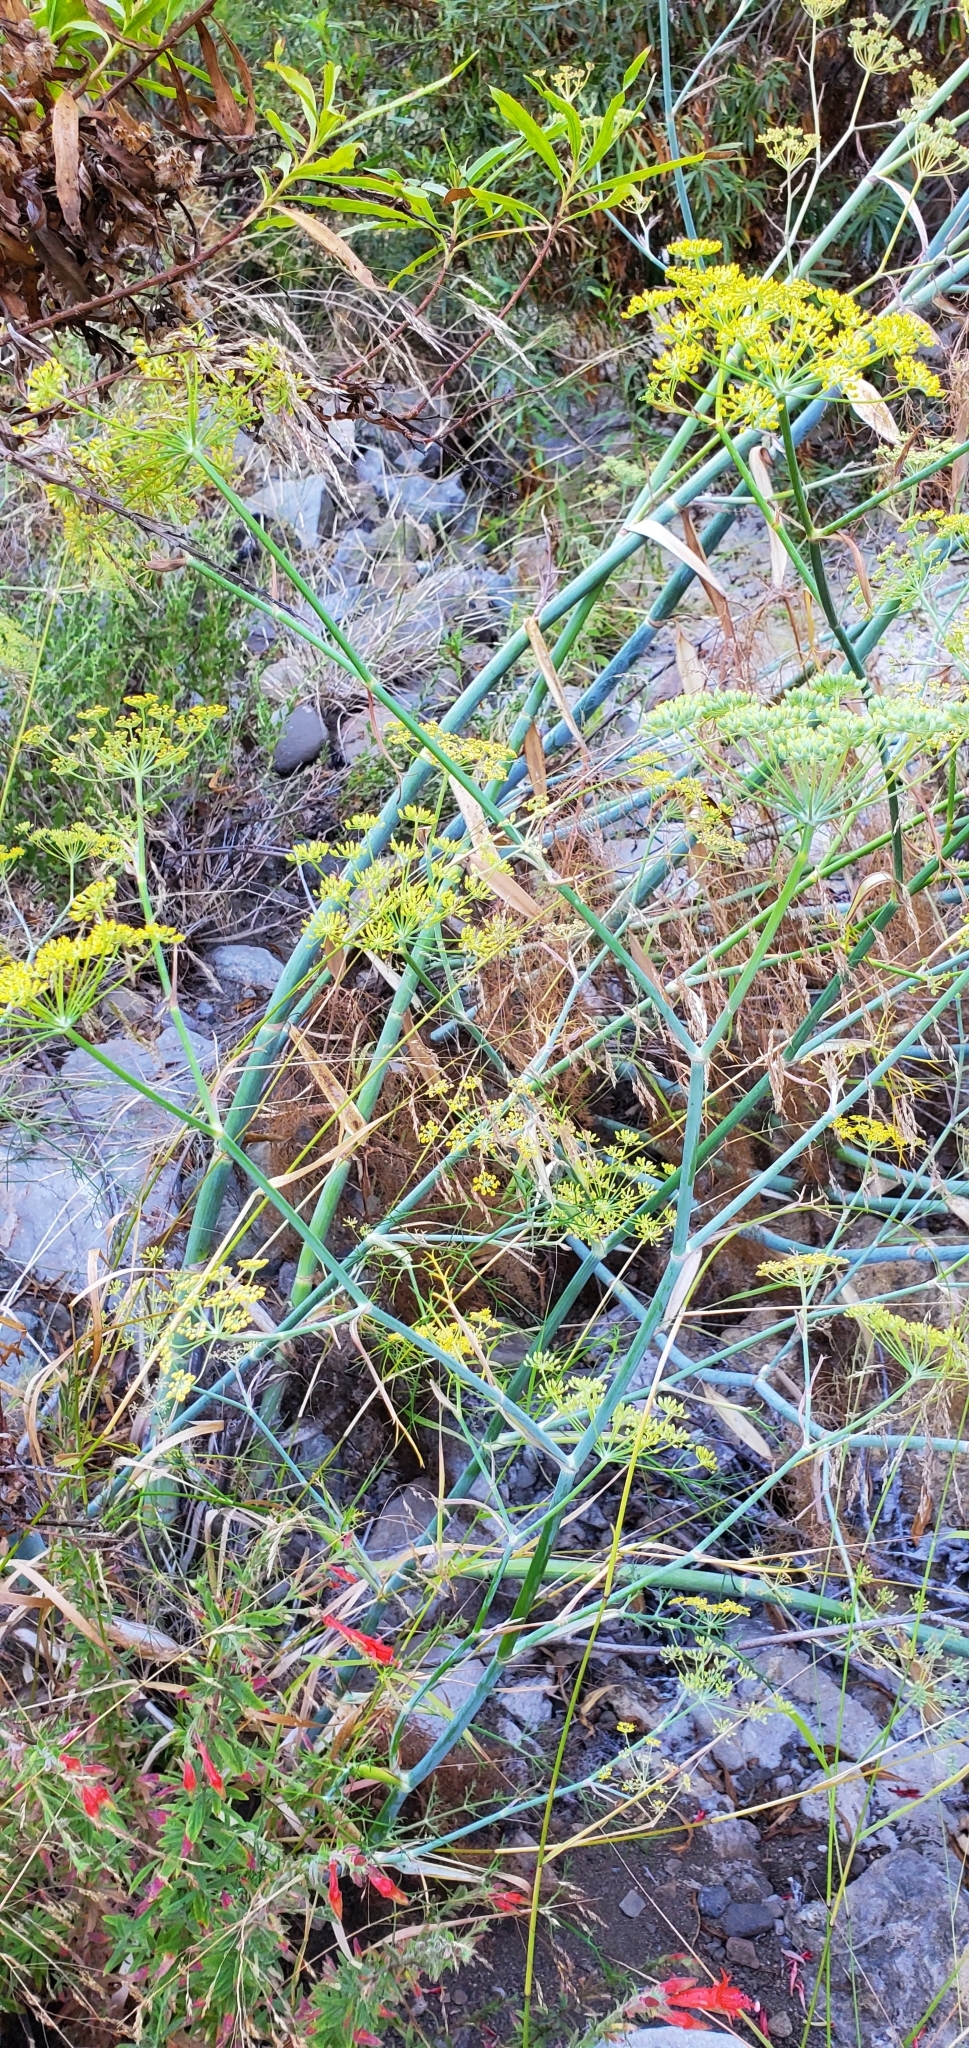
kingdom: Plantae
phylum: Tracheophyta
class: Magnoliopsida
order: Apiales
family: Apiaceae
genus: Foeniculum
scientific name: Foeniculum vulgare
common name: Fennel
